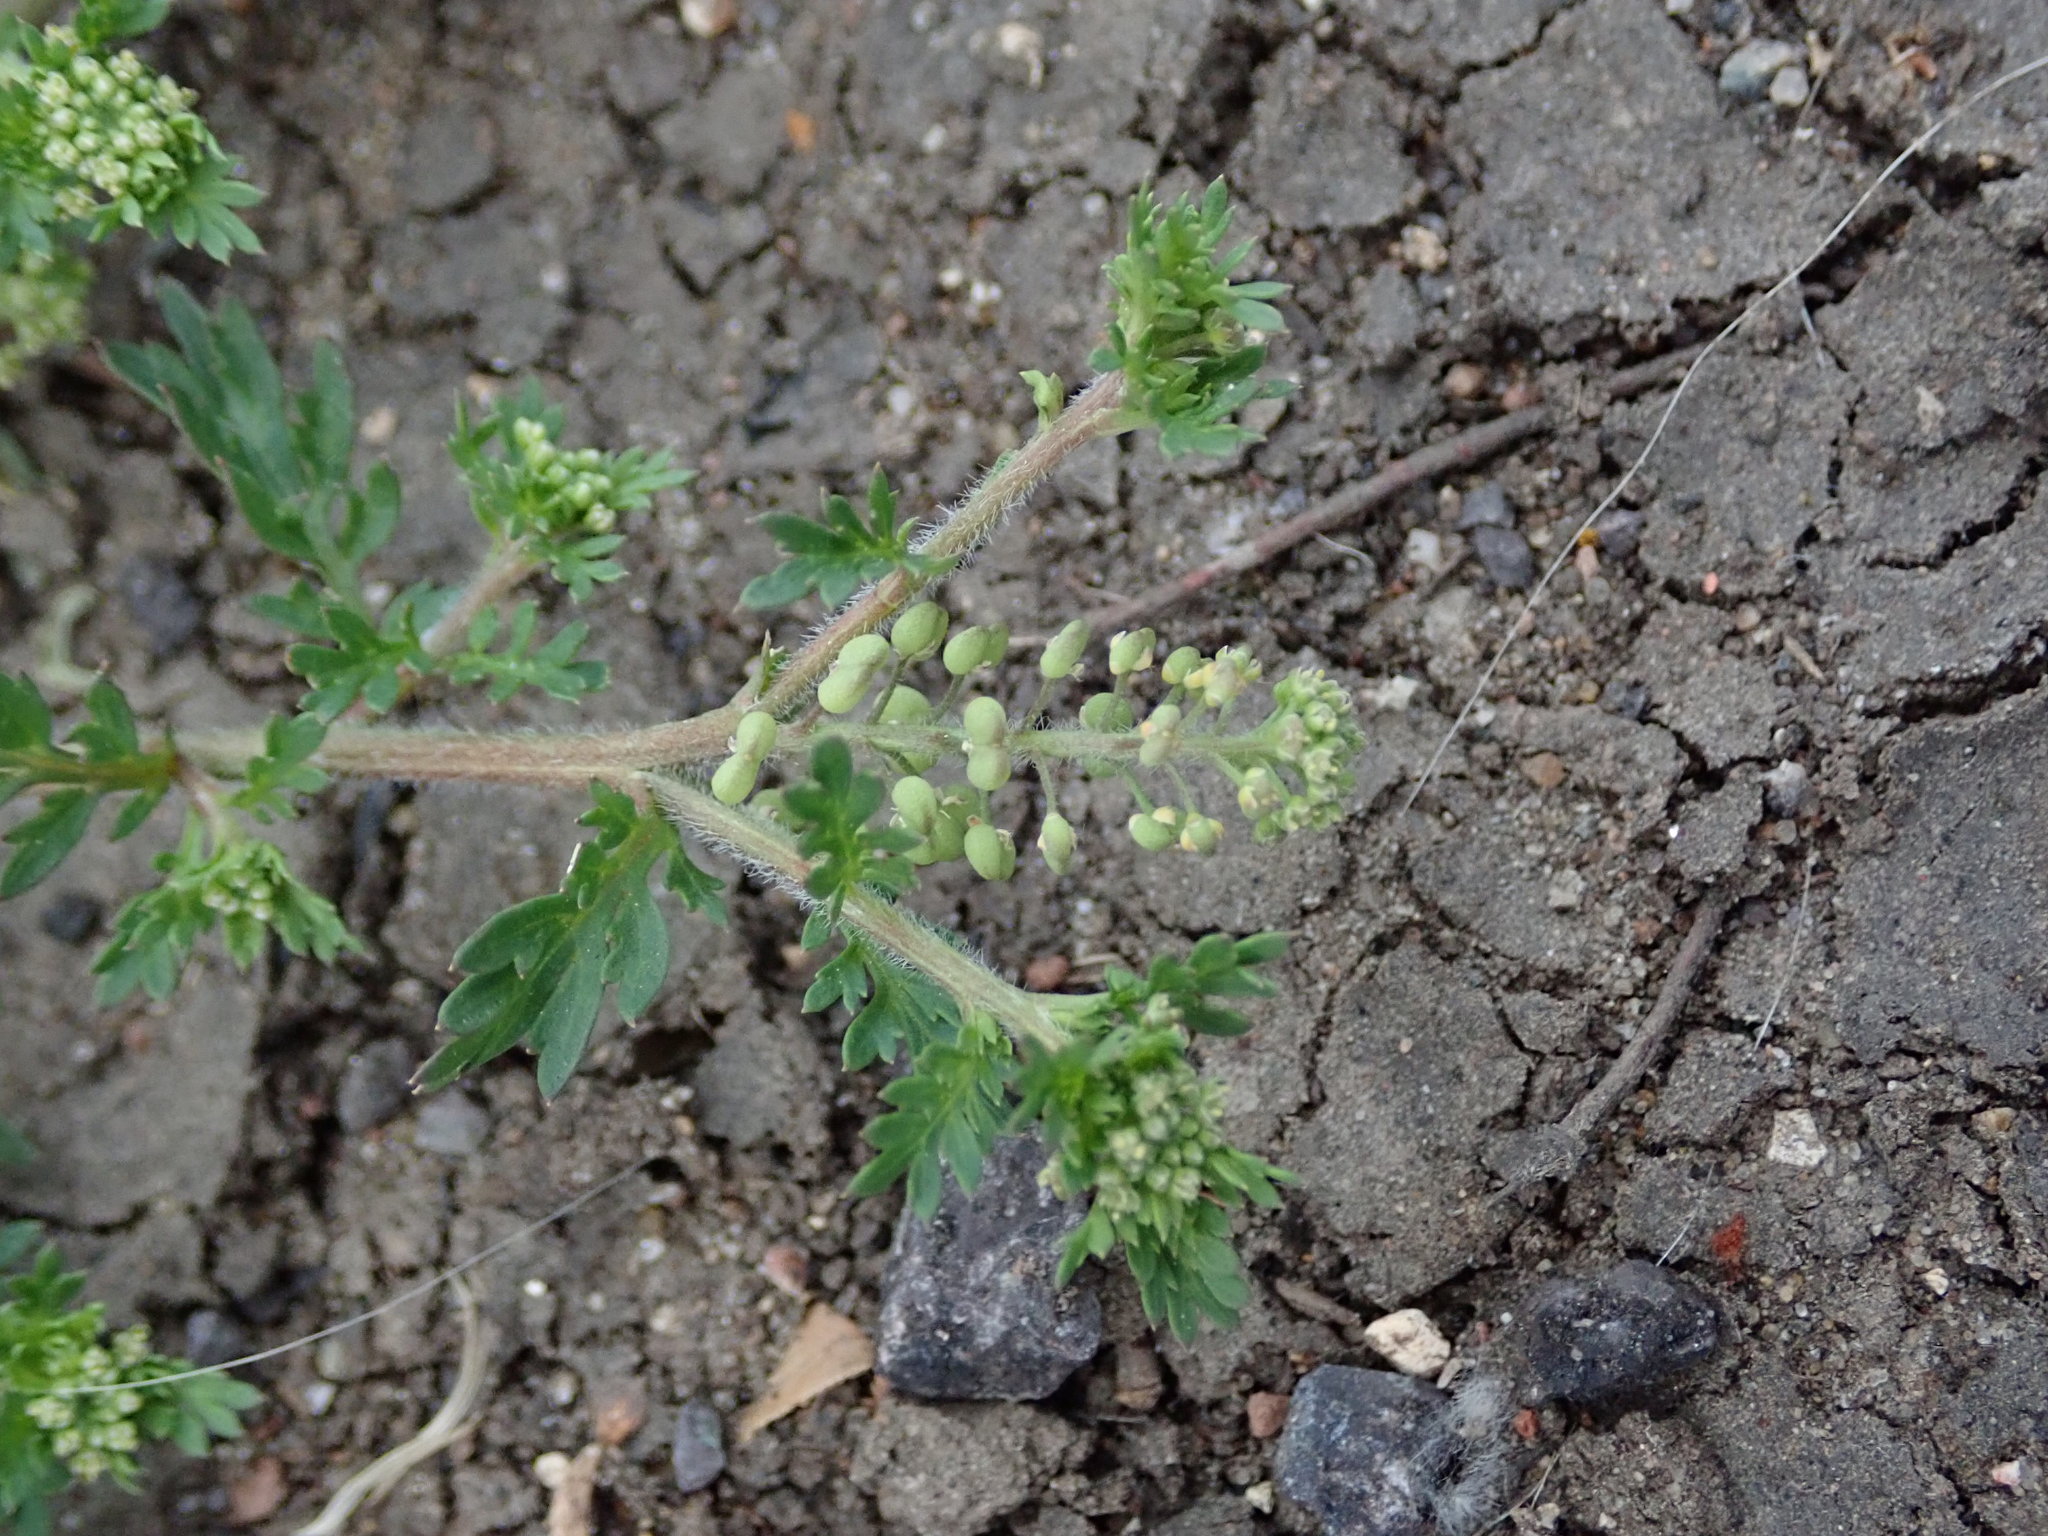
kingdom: Plantae
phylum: Tracheophyta
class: Magnoliopsida
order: Brassicales
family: Brassicaceae
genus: Lepidium
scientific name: Lepidium didymum
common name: Lesser swinecress
